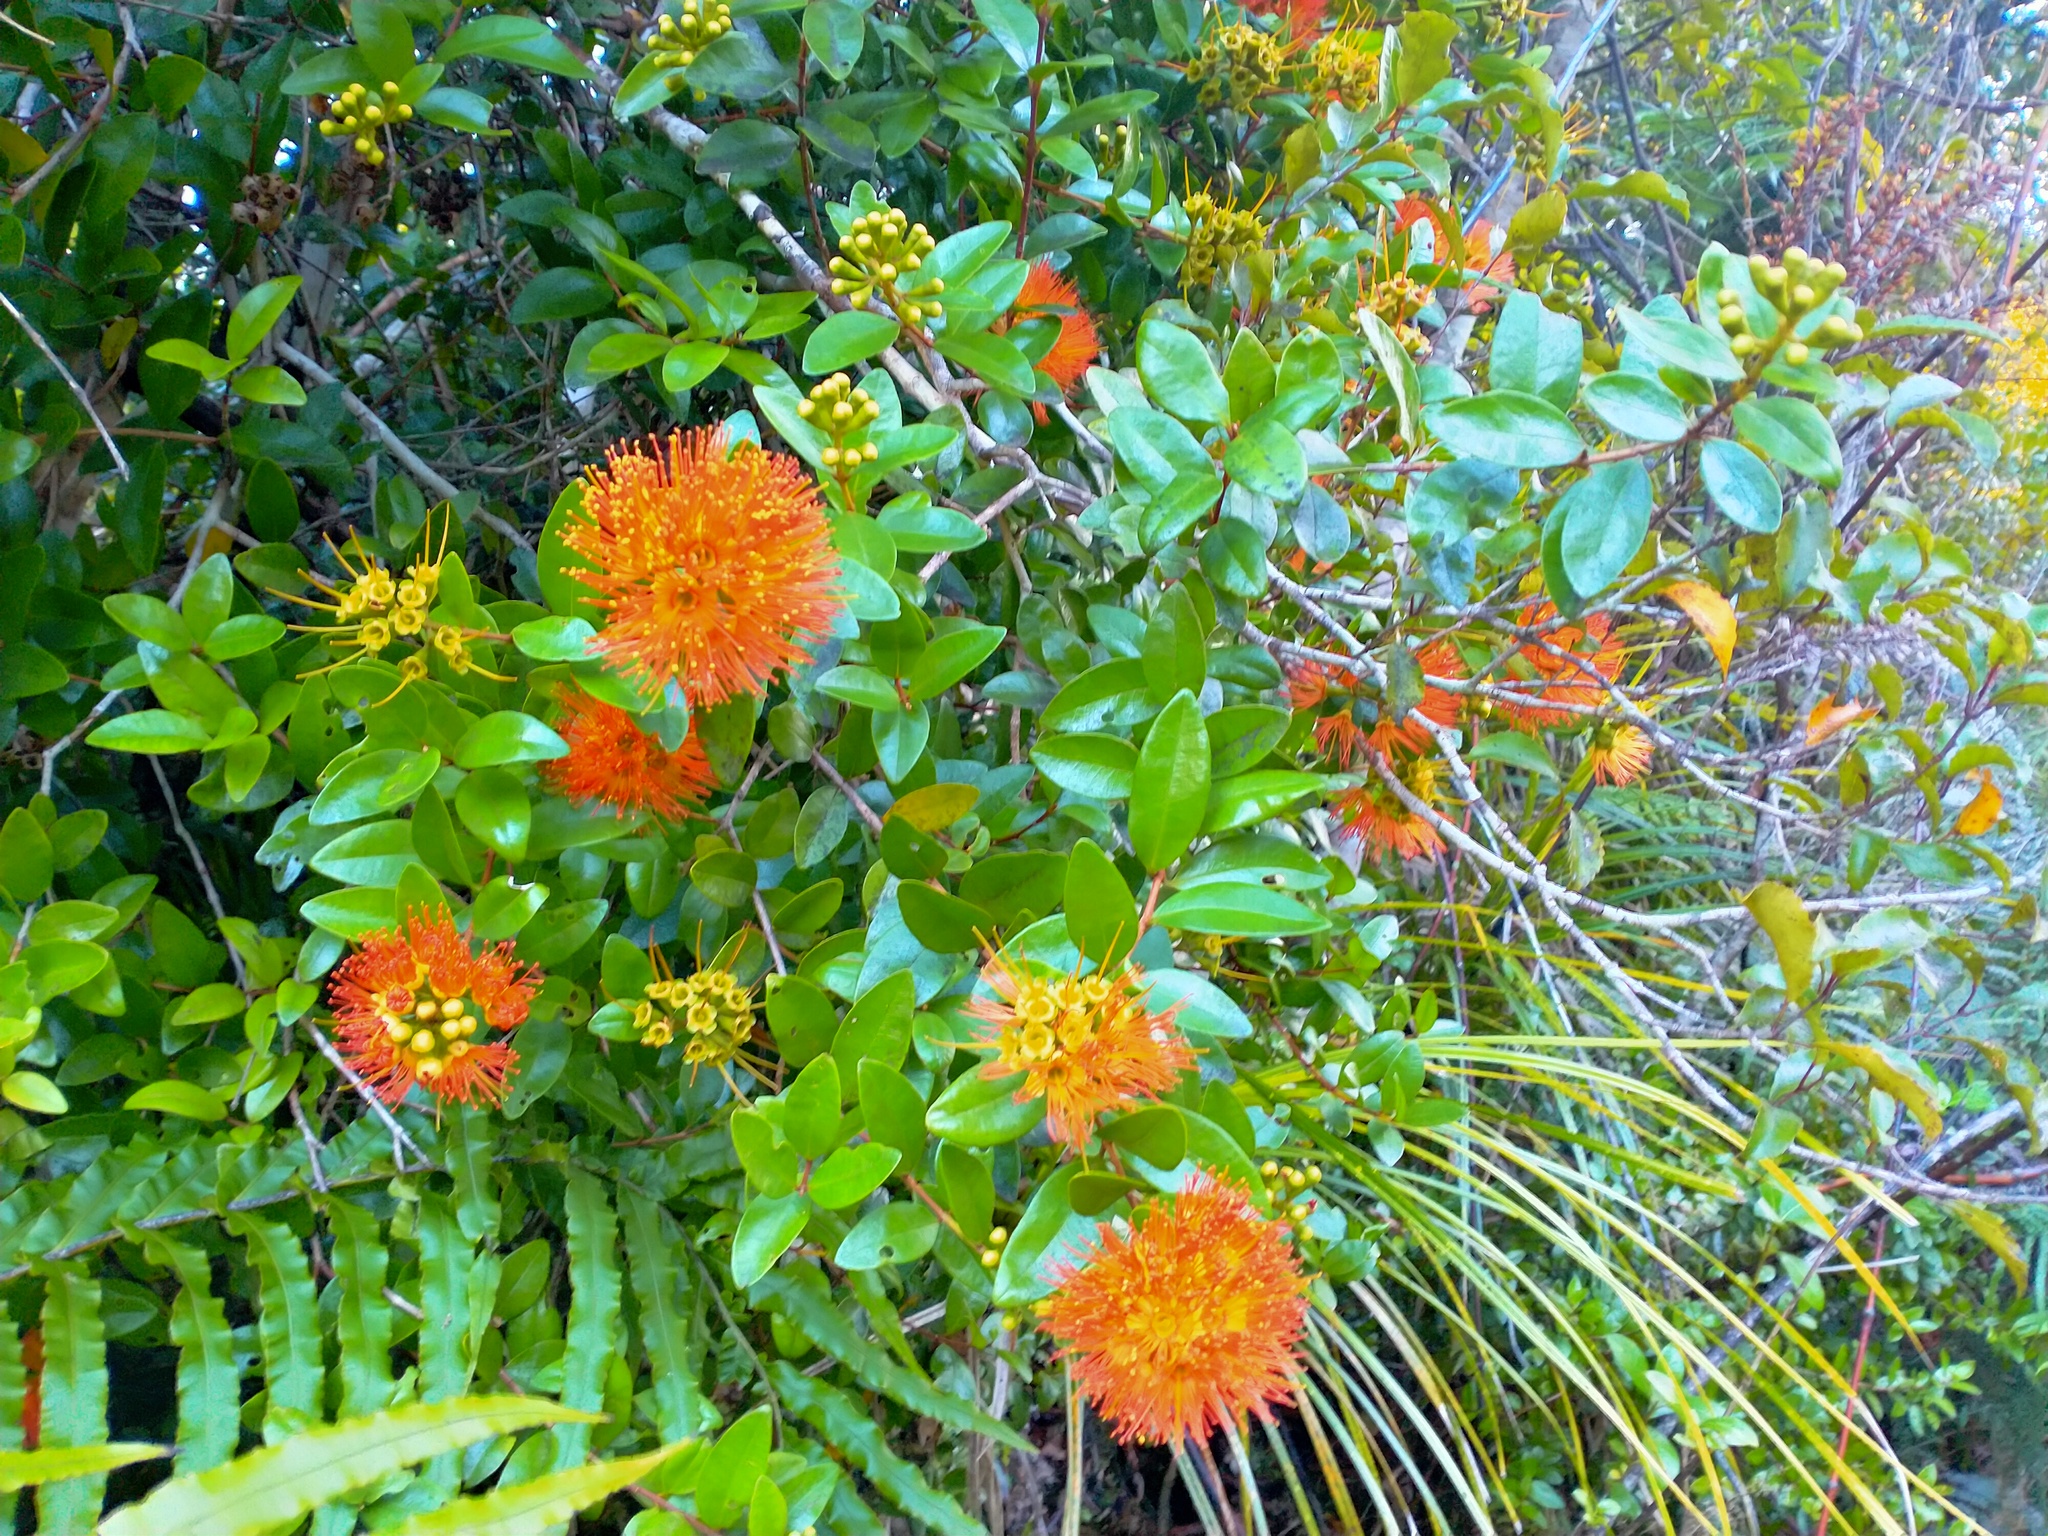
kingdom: Plantae
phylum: Tracheophyta
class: Magnoliopsida
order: Myrtales
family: Myrtaceae
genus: Metrosideros
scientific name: Metrosideros fulgens
